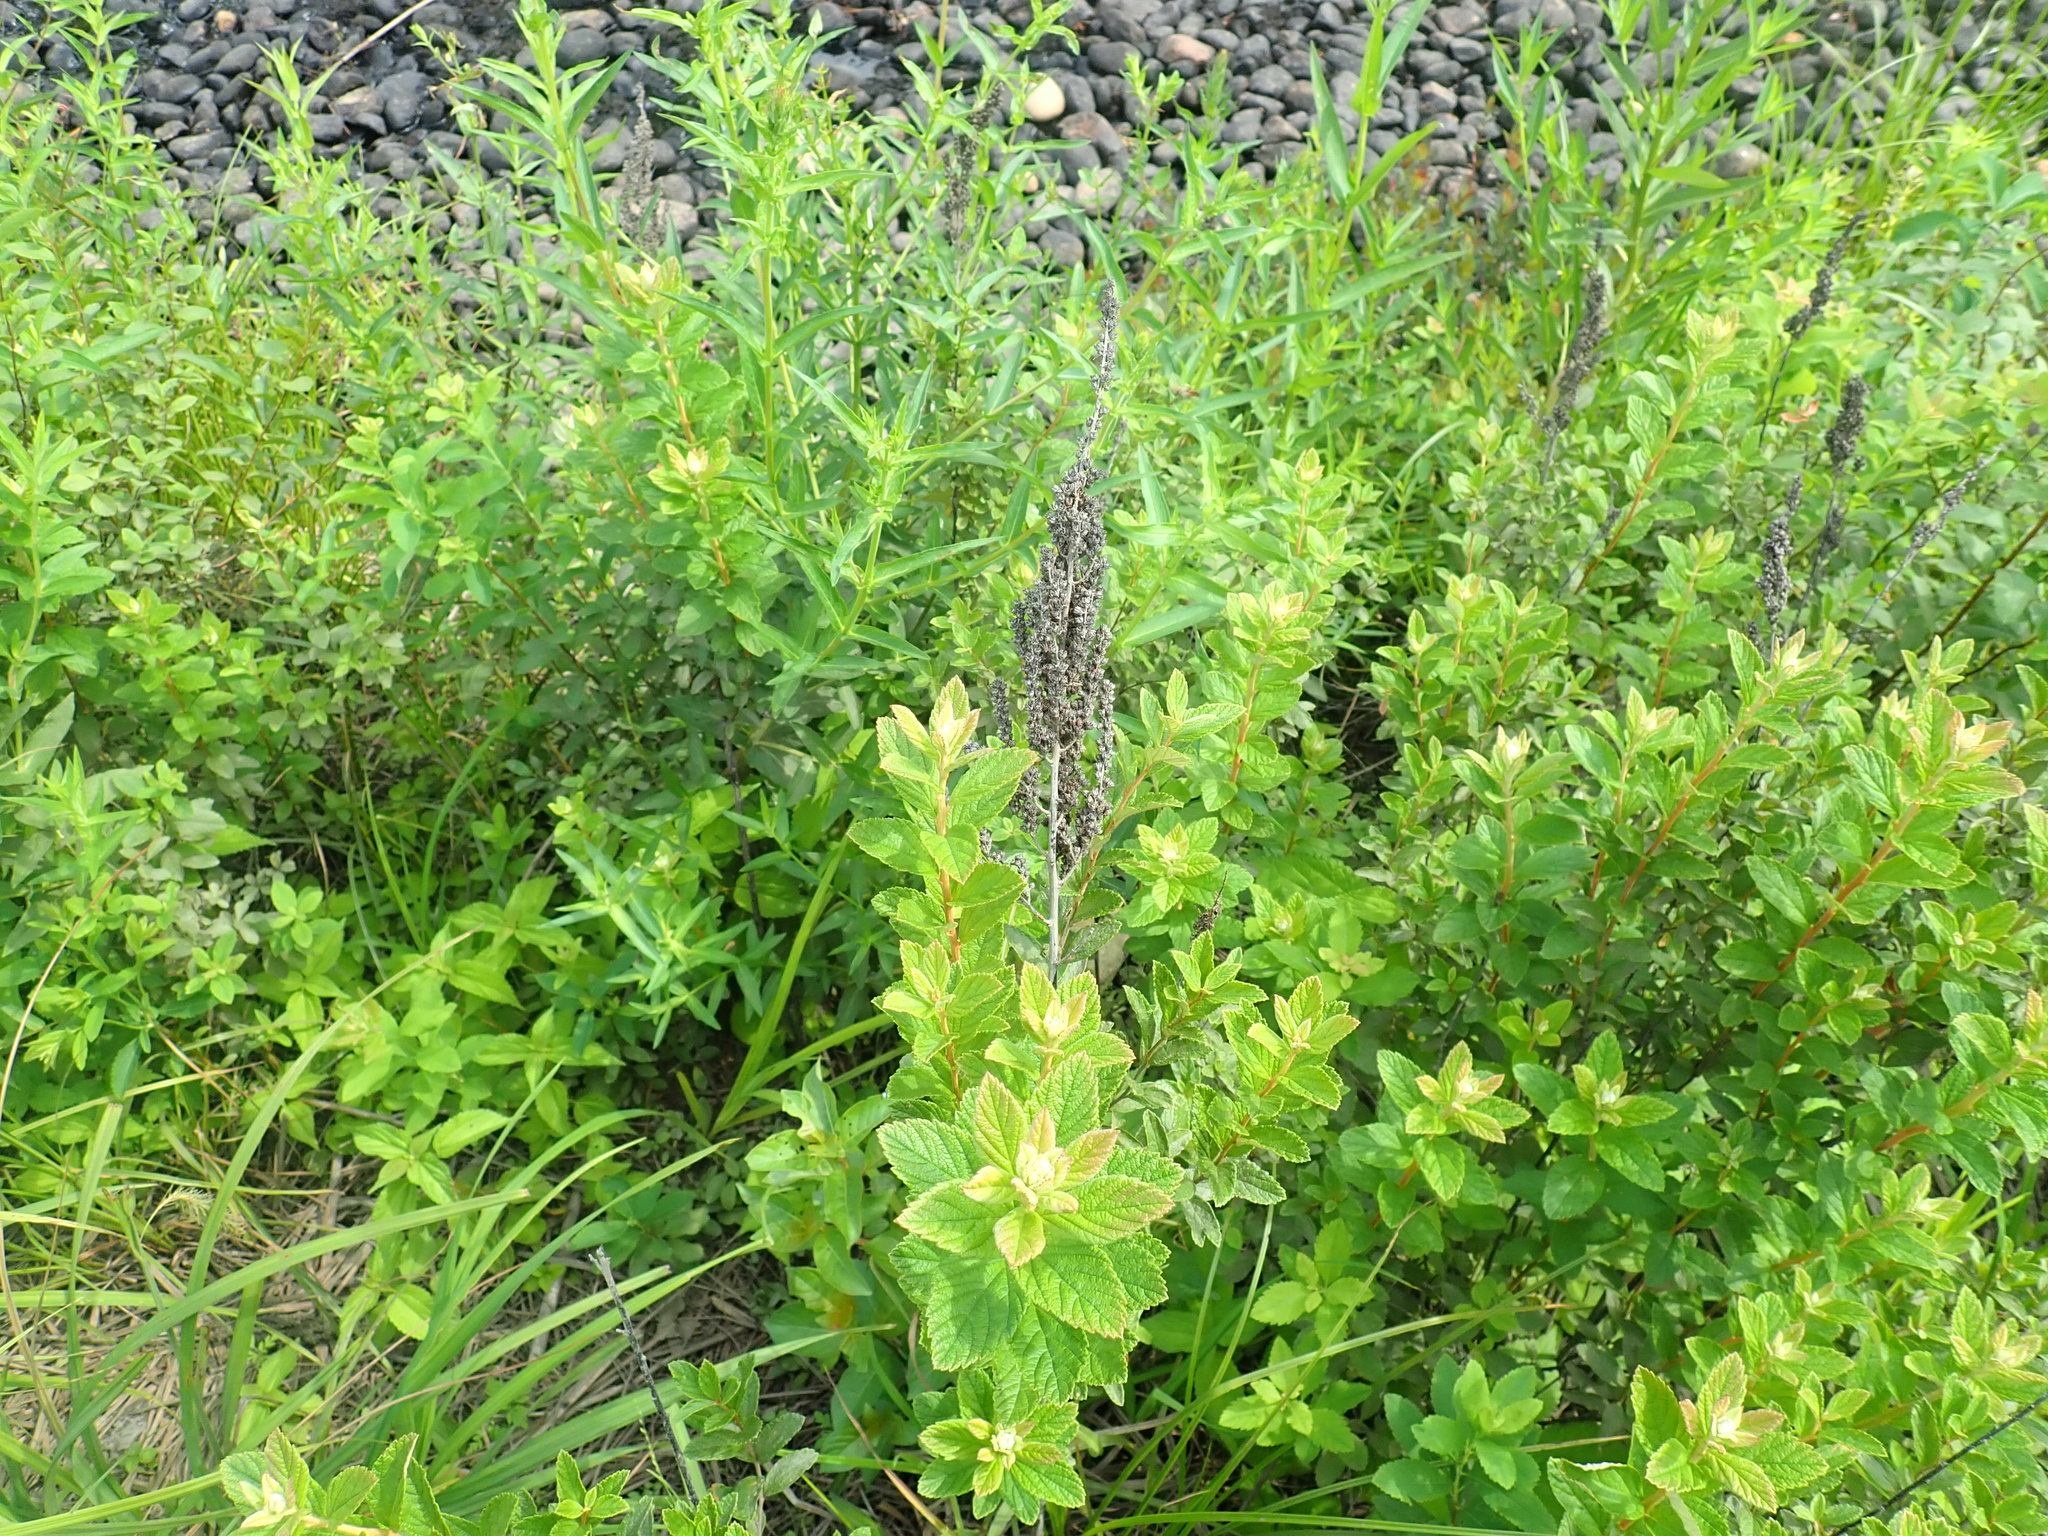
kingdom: Plantae
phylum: Tracheophyta
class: Magnoliopsida
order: Rosales
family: Rosaceae
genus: Spiraea
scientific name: Spiraea tomentosa
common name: Hardhack
